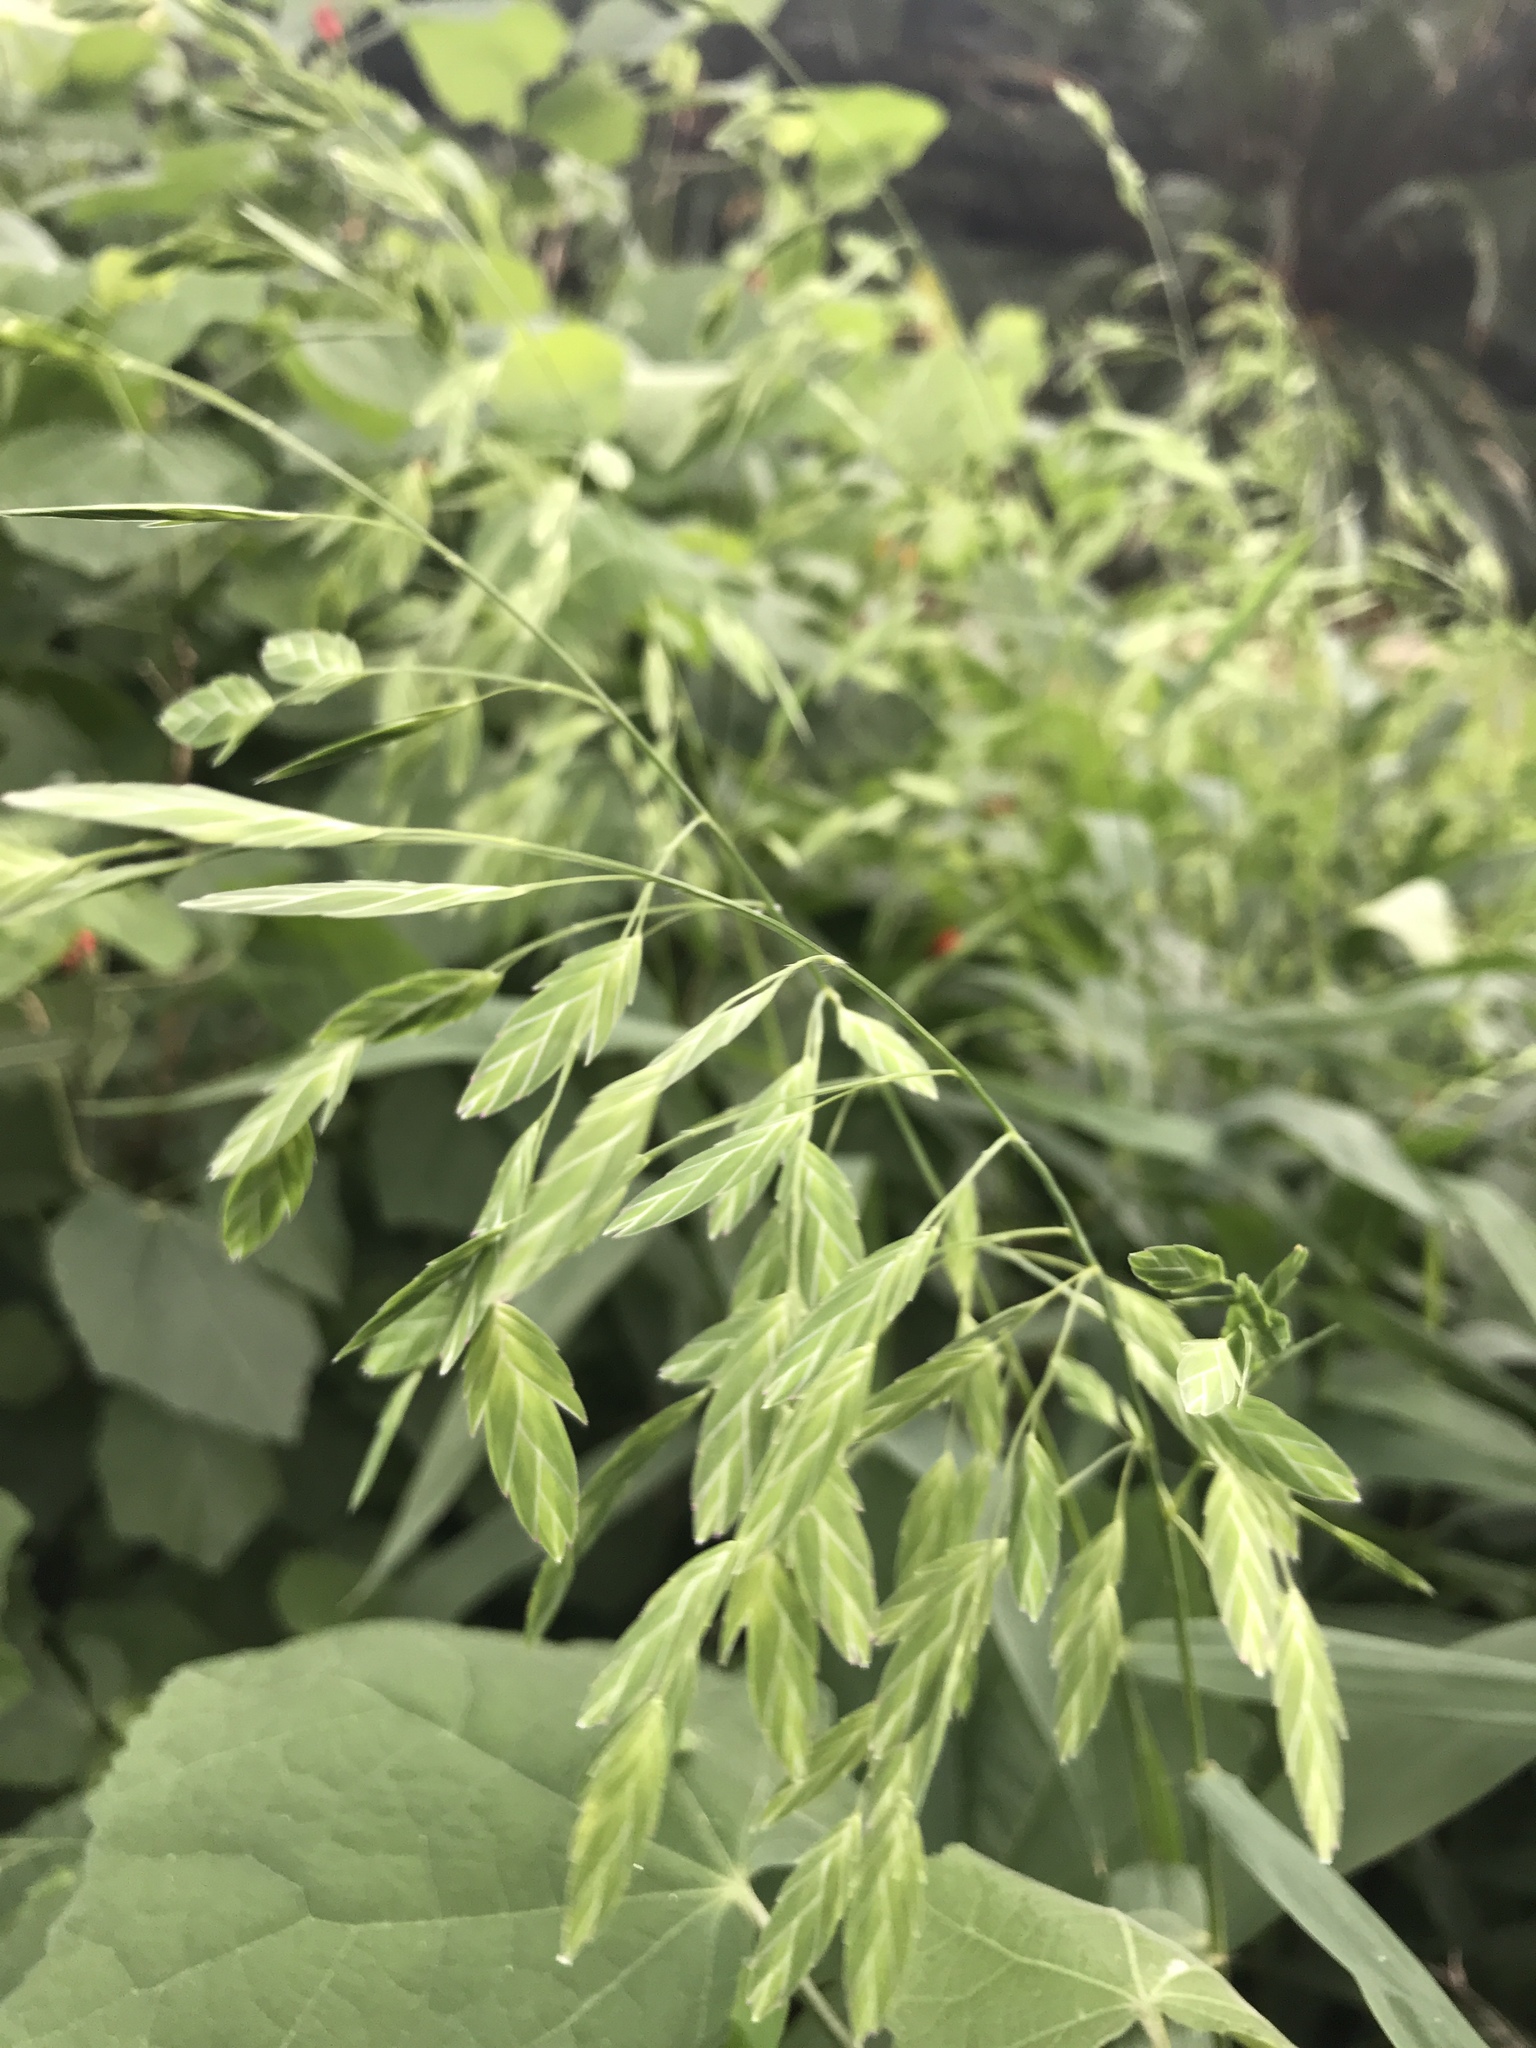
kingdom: Plantae
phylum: Tracheophyta
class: Liliopsida
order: Poales
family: Poaceae
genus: Chasmanthium
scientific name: Chasmanthium latifolium
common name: Broad-leaved chasmanthium
